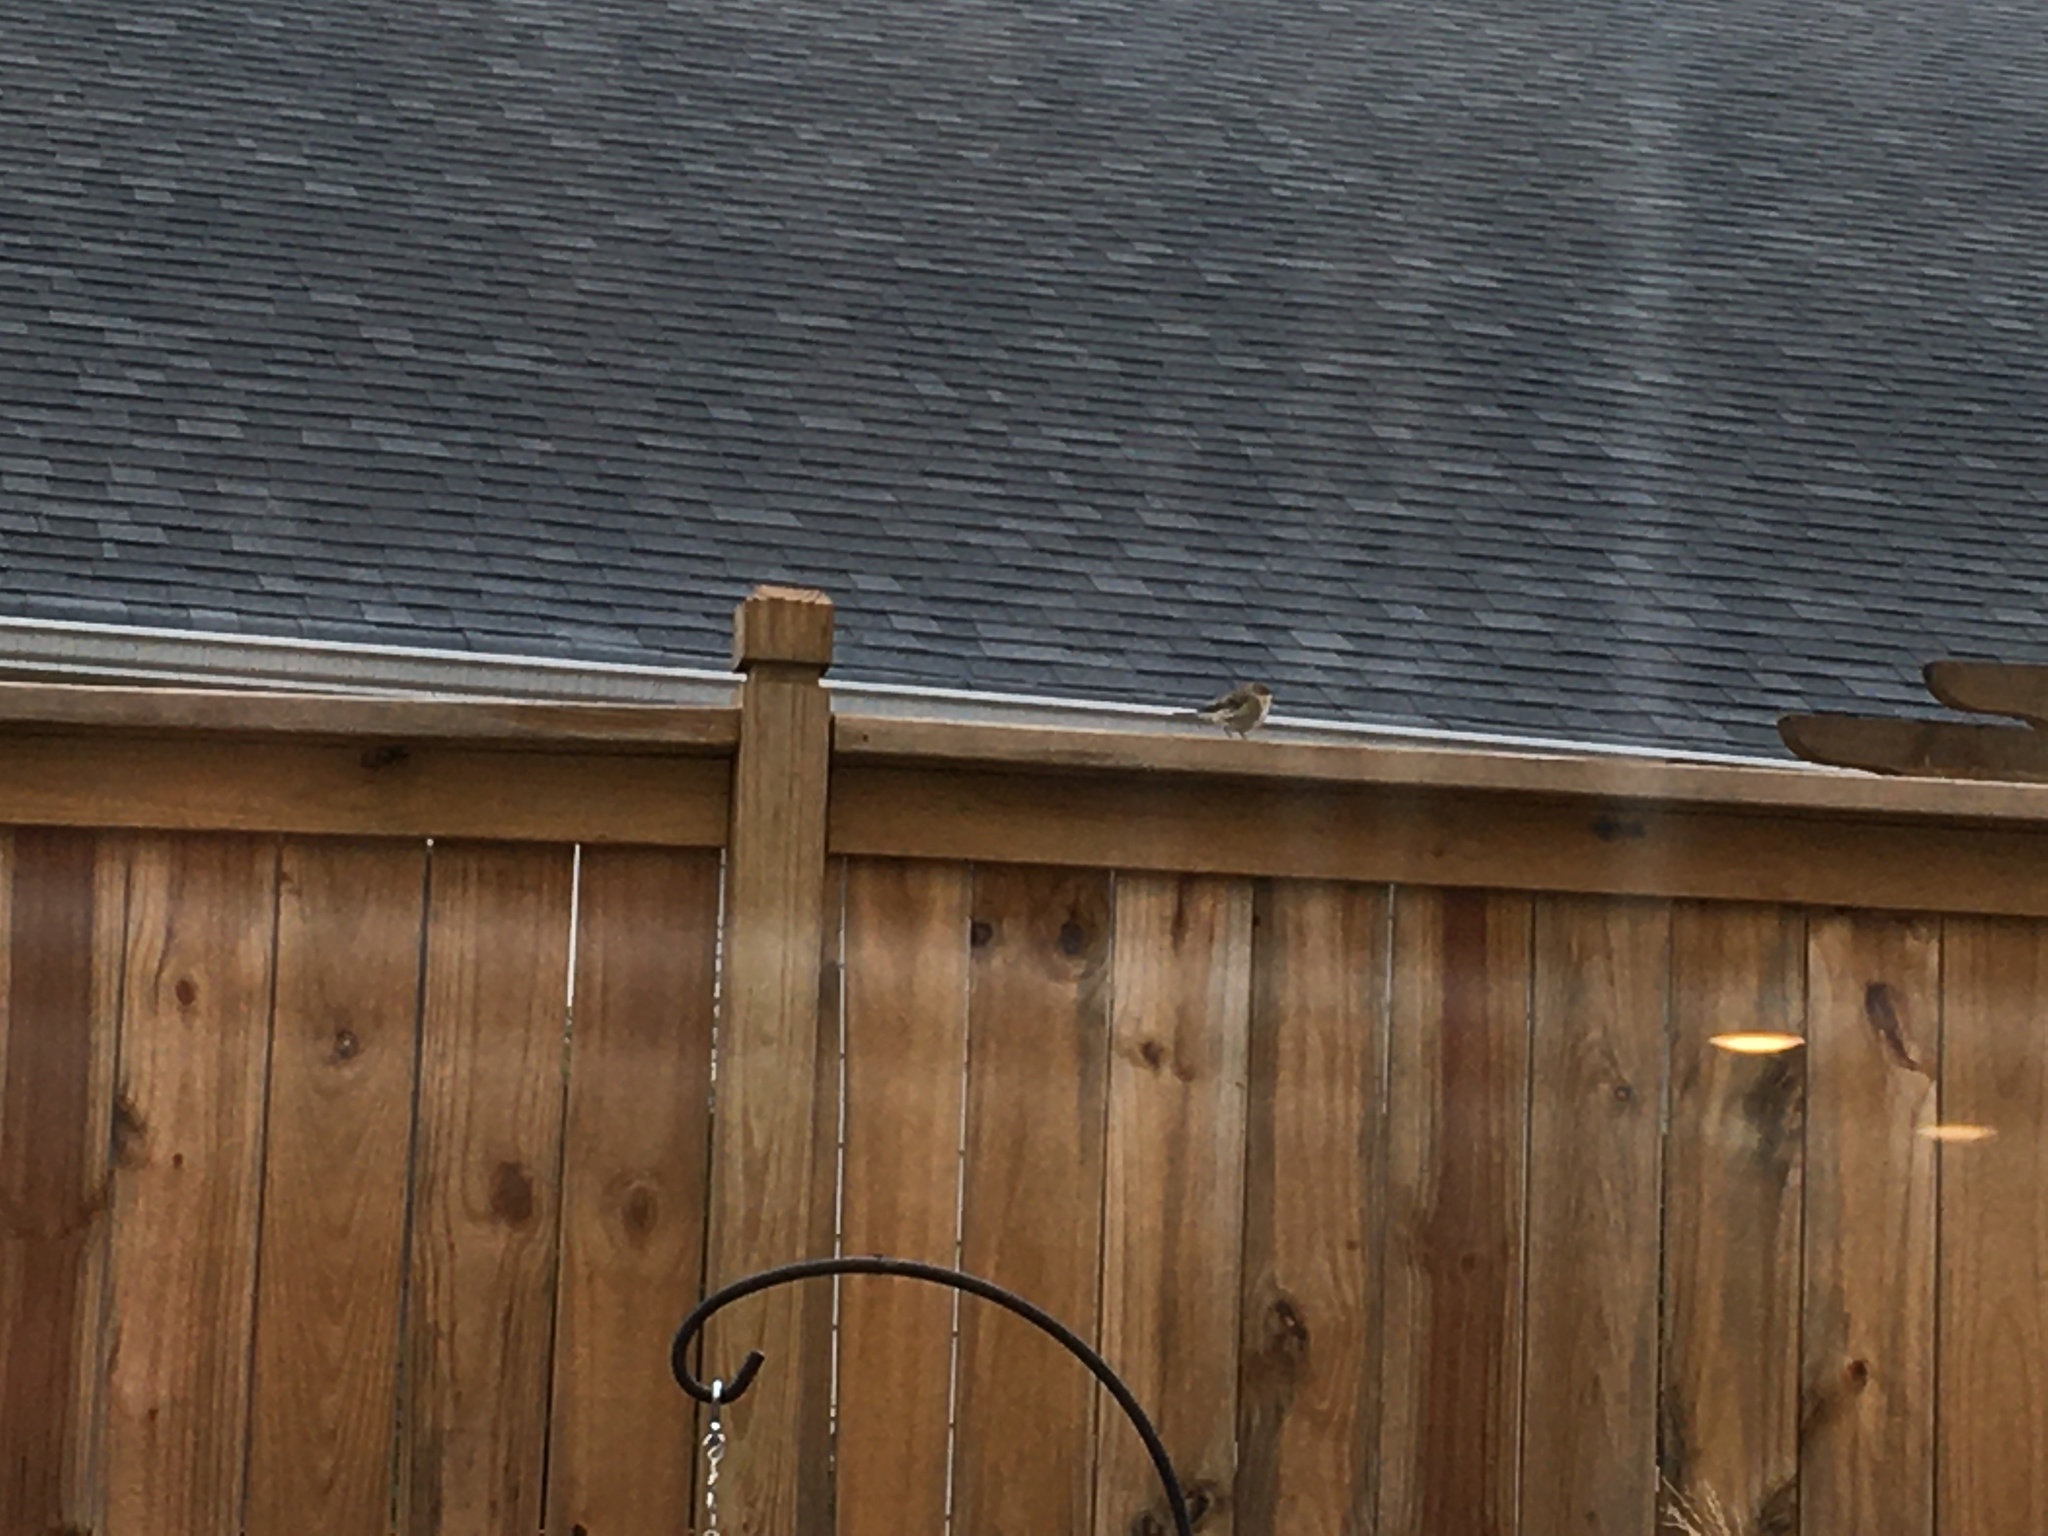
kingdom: Animalia
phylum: Chordata
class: Aves
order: Passeriformes
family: Parulidae
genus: Setophaga
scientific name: Setophaga coronata
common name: Myrtle warbler
